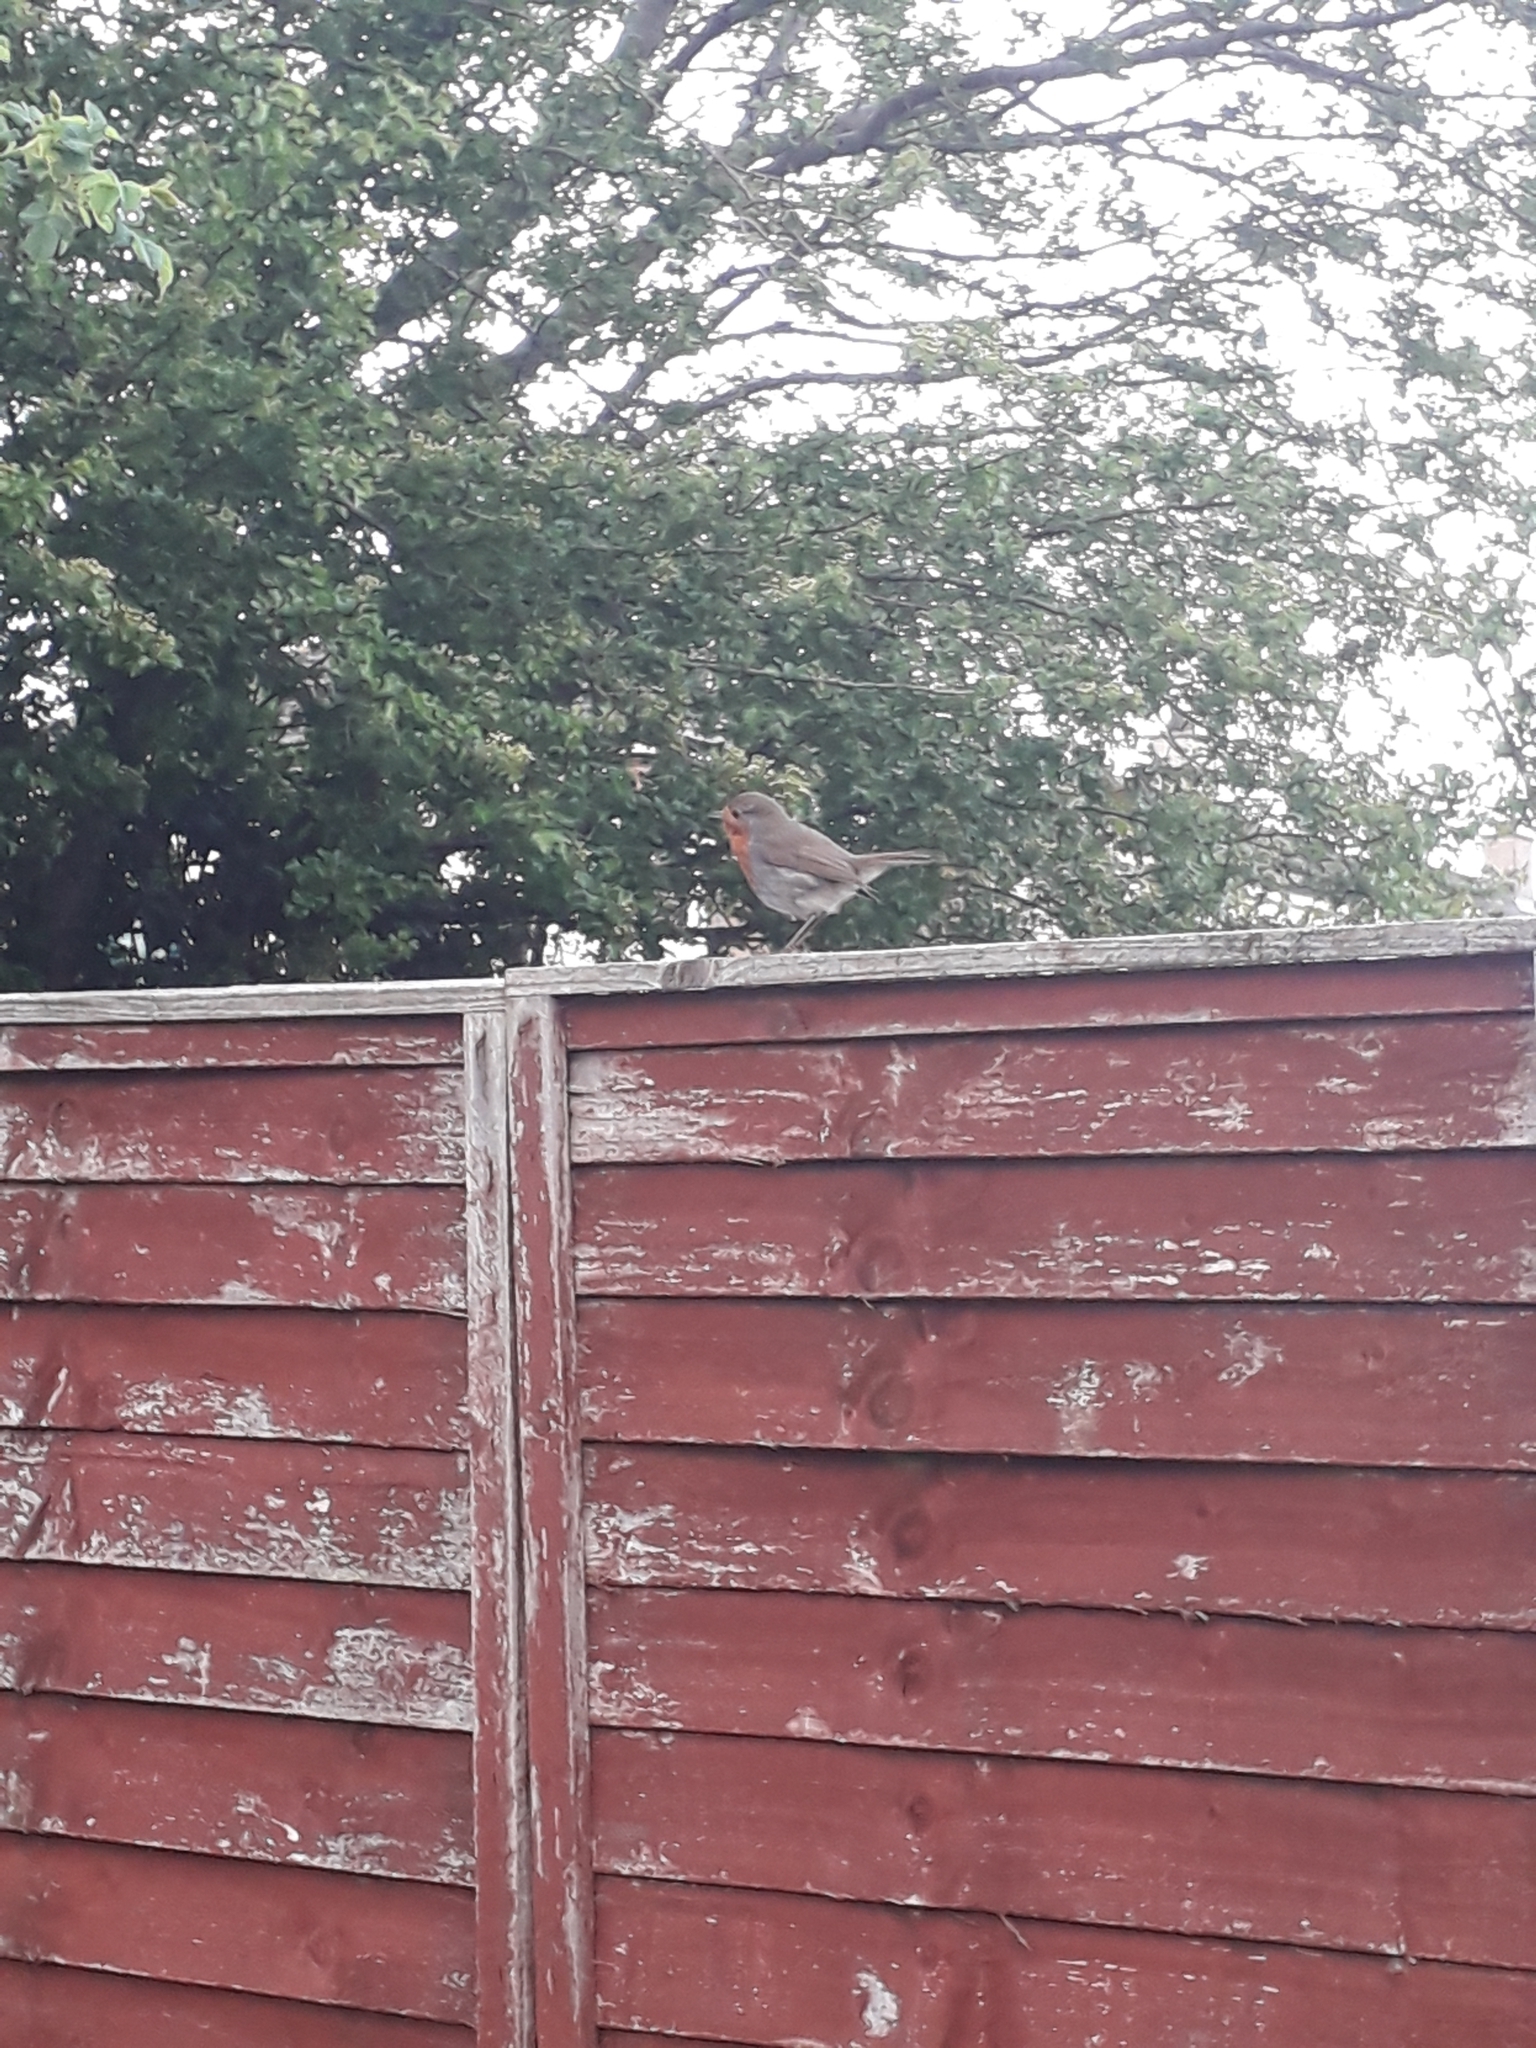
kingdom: Animalia
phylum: Chordata
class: Aves
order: Passeriformes
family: Muscicapidae
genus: Erithacus
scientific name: Erithacus rubecula
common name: European robin
